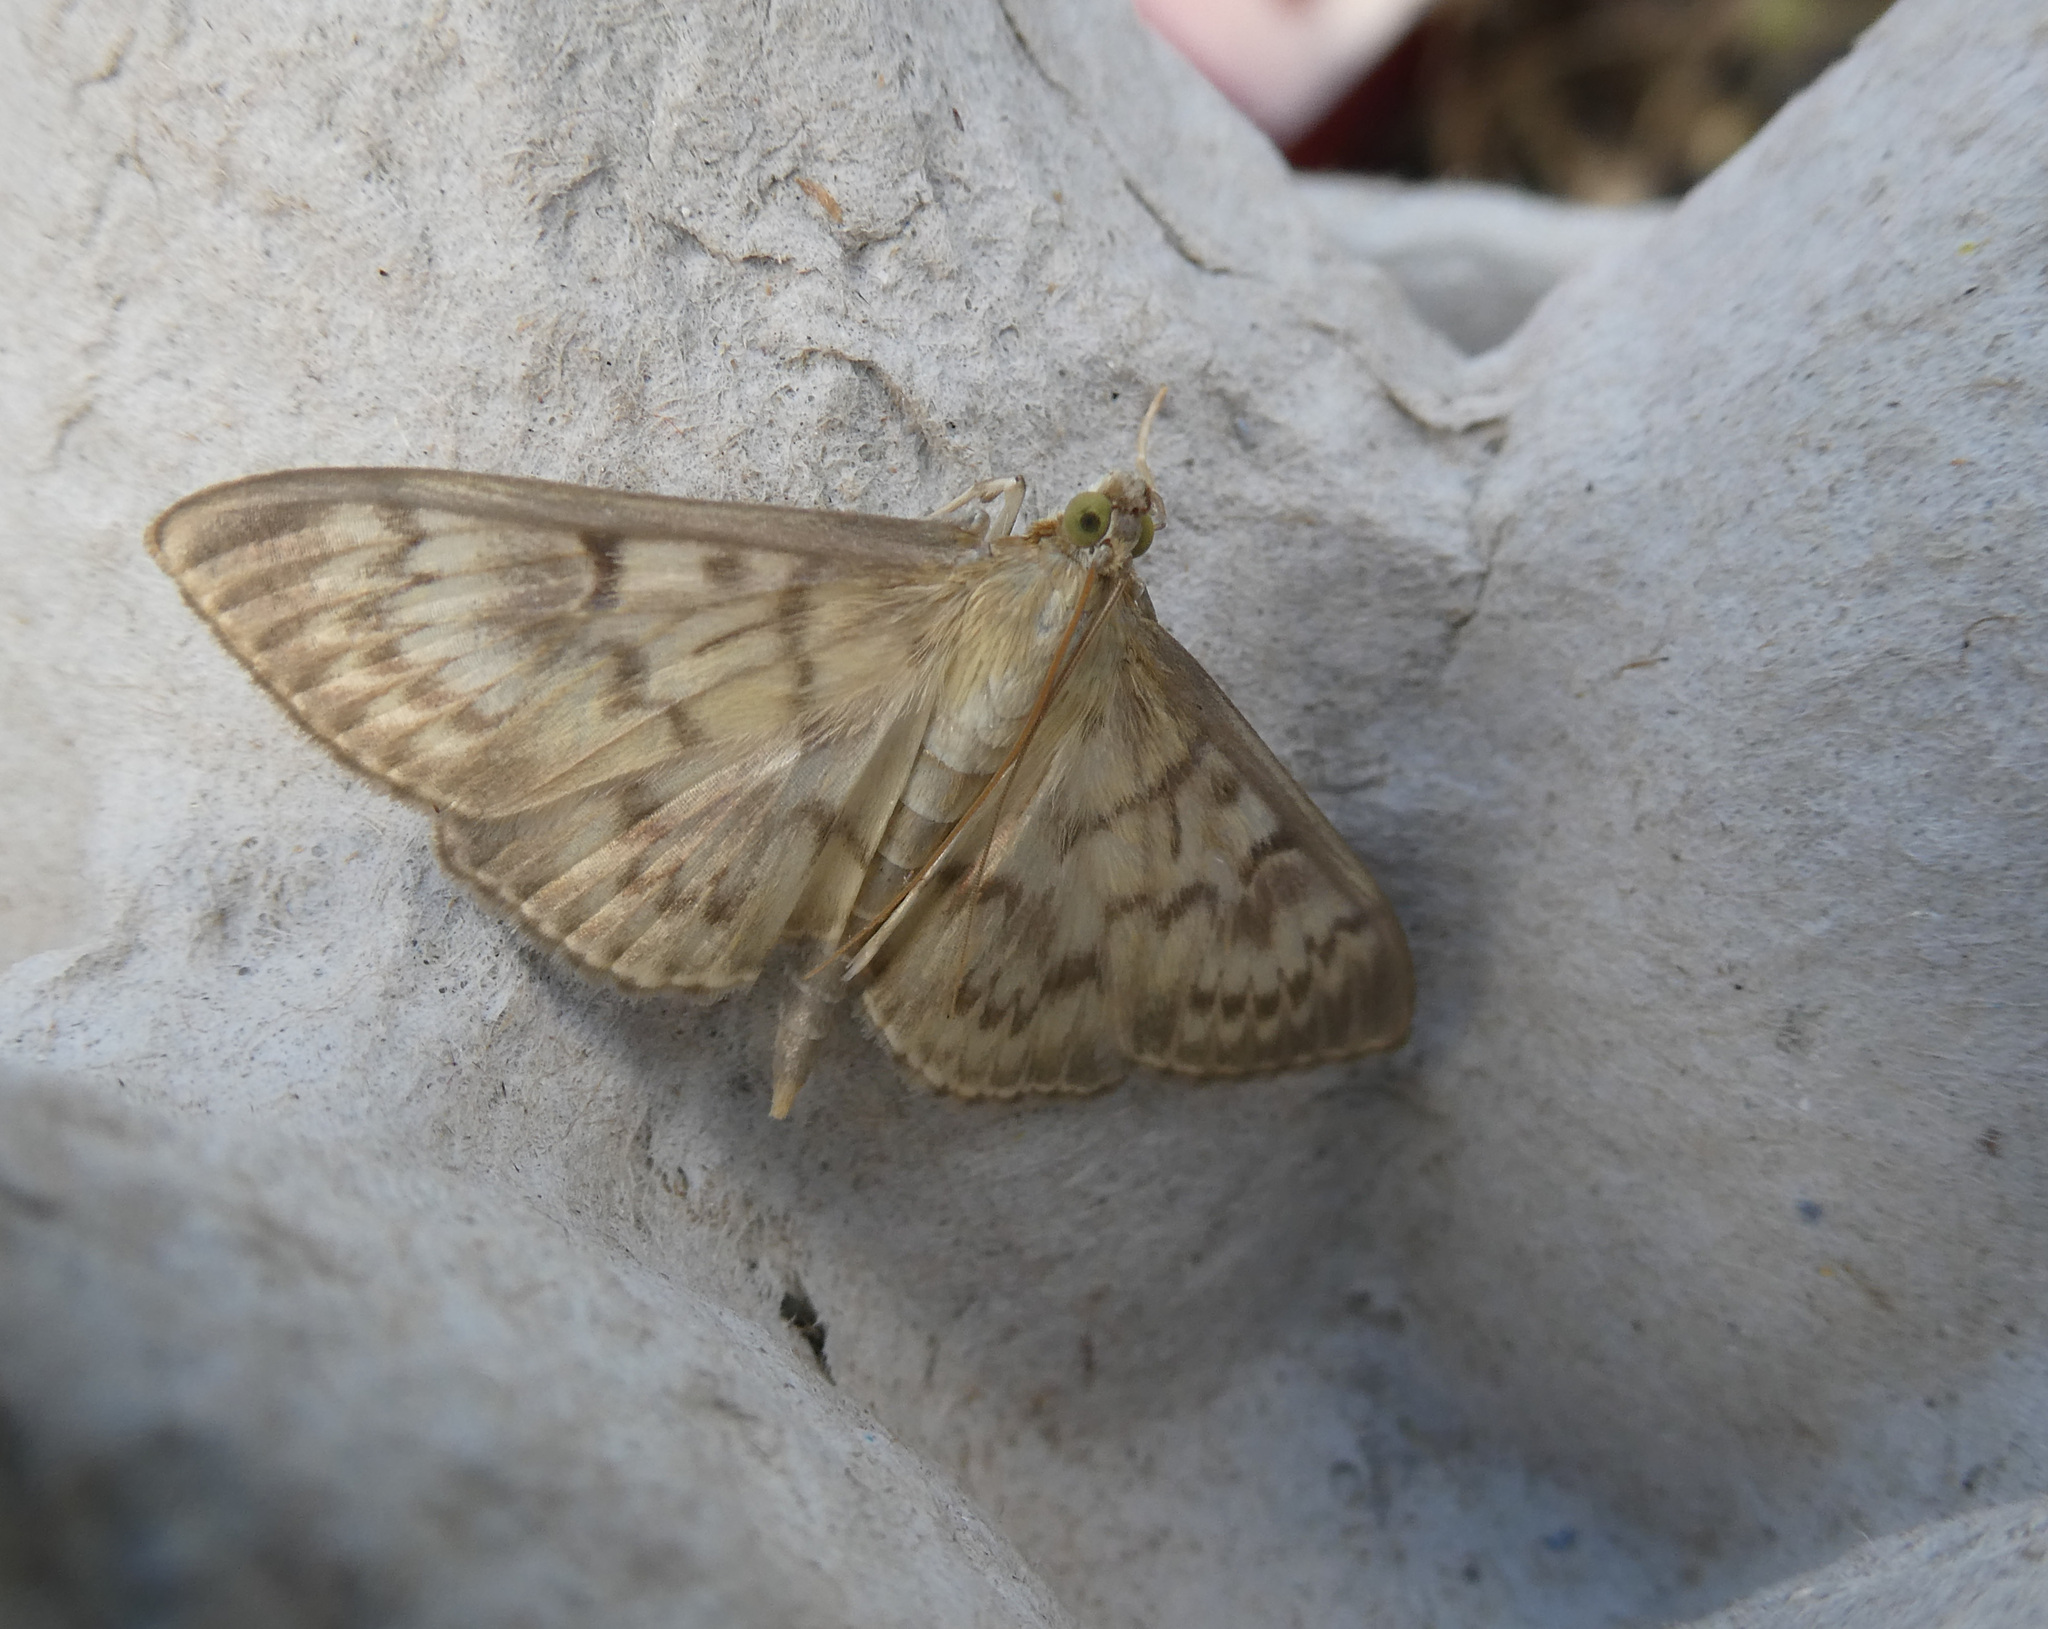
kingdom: Animalia
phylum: Arthropoda
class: Insecta
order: Lepidoptera
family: Crambidae
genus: Patania
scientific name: Patania ruralis
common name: Mother of pearl
